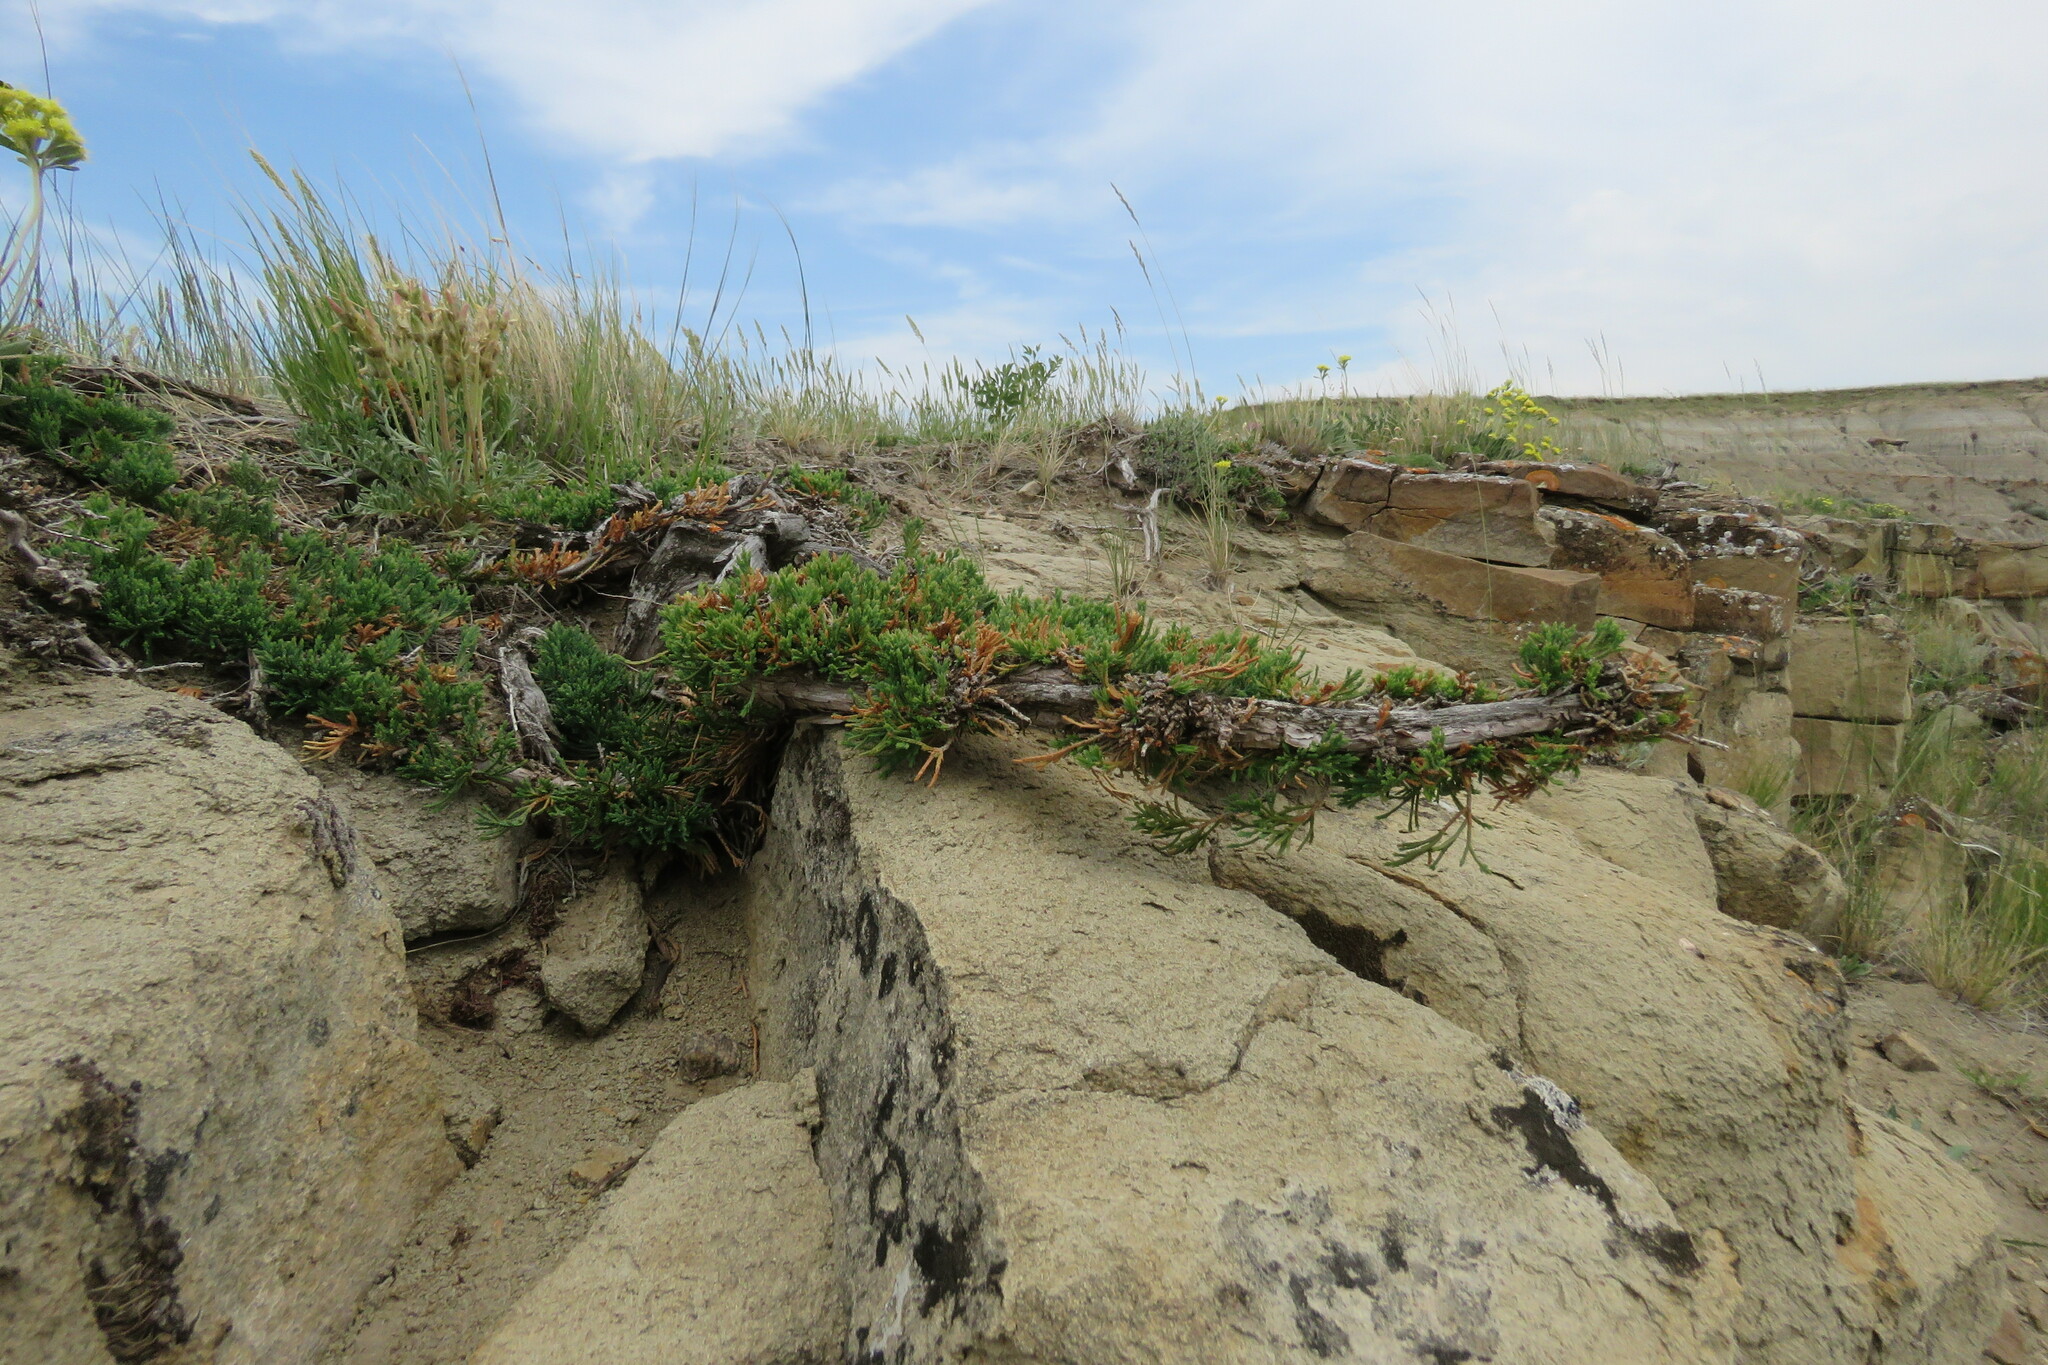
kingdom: Plantae
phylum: Tracheophyta
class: Pinopsida
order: Pinales
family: Cupressaceae
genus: Juniperus
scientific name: Juniperus horizontalis
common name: Creeping juniper
